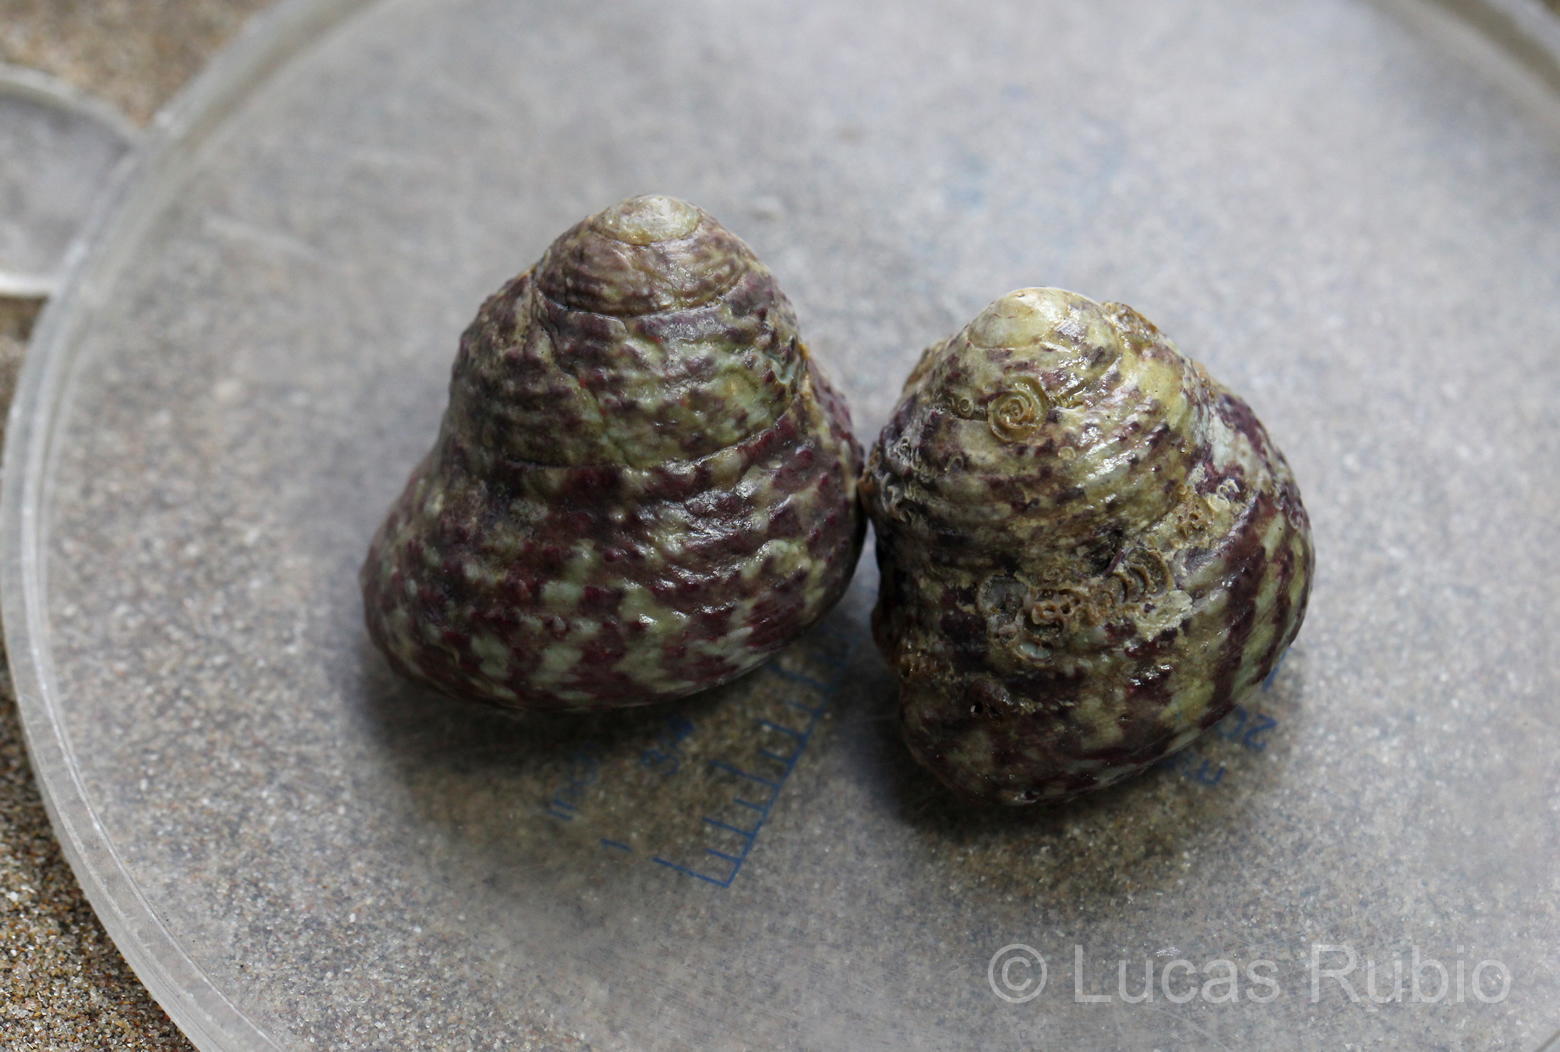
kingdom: Animalia
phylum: Mollusca
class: Gastropoda
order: Trochida
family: Tegulidae
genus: Agathistoma
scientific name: Agathistoma viridulum
